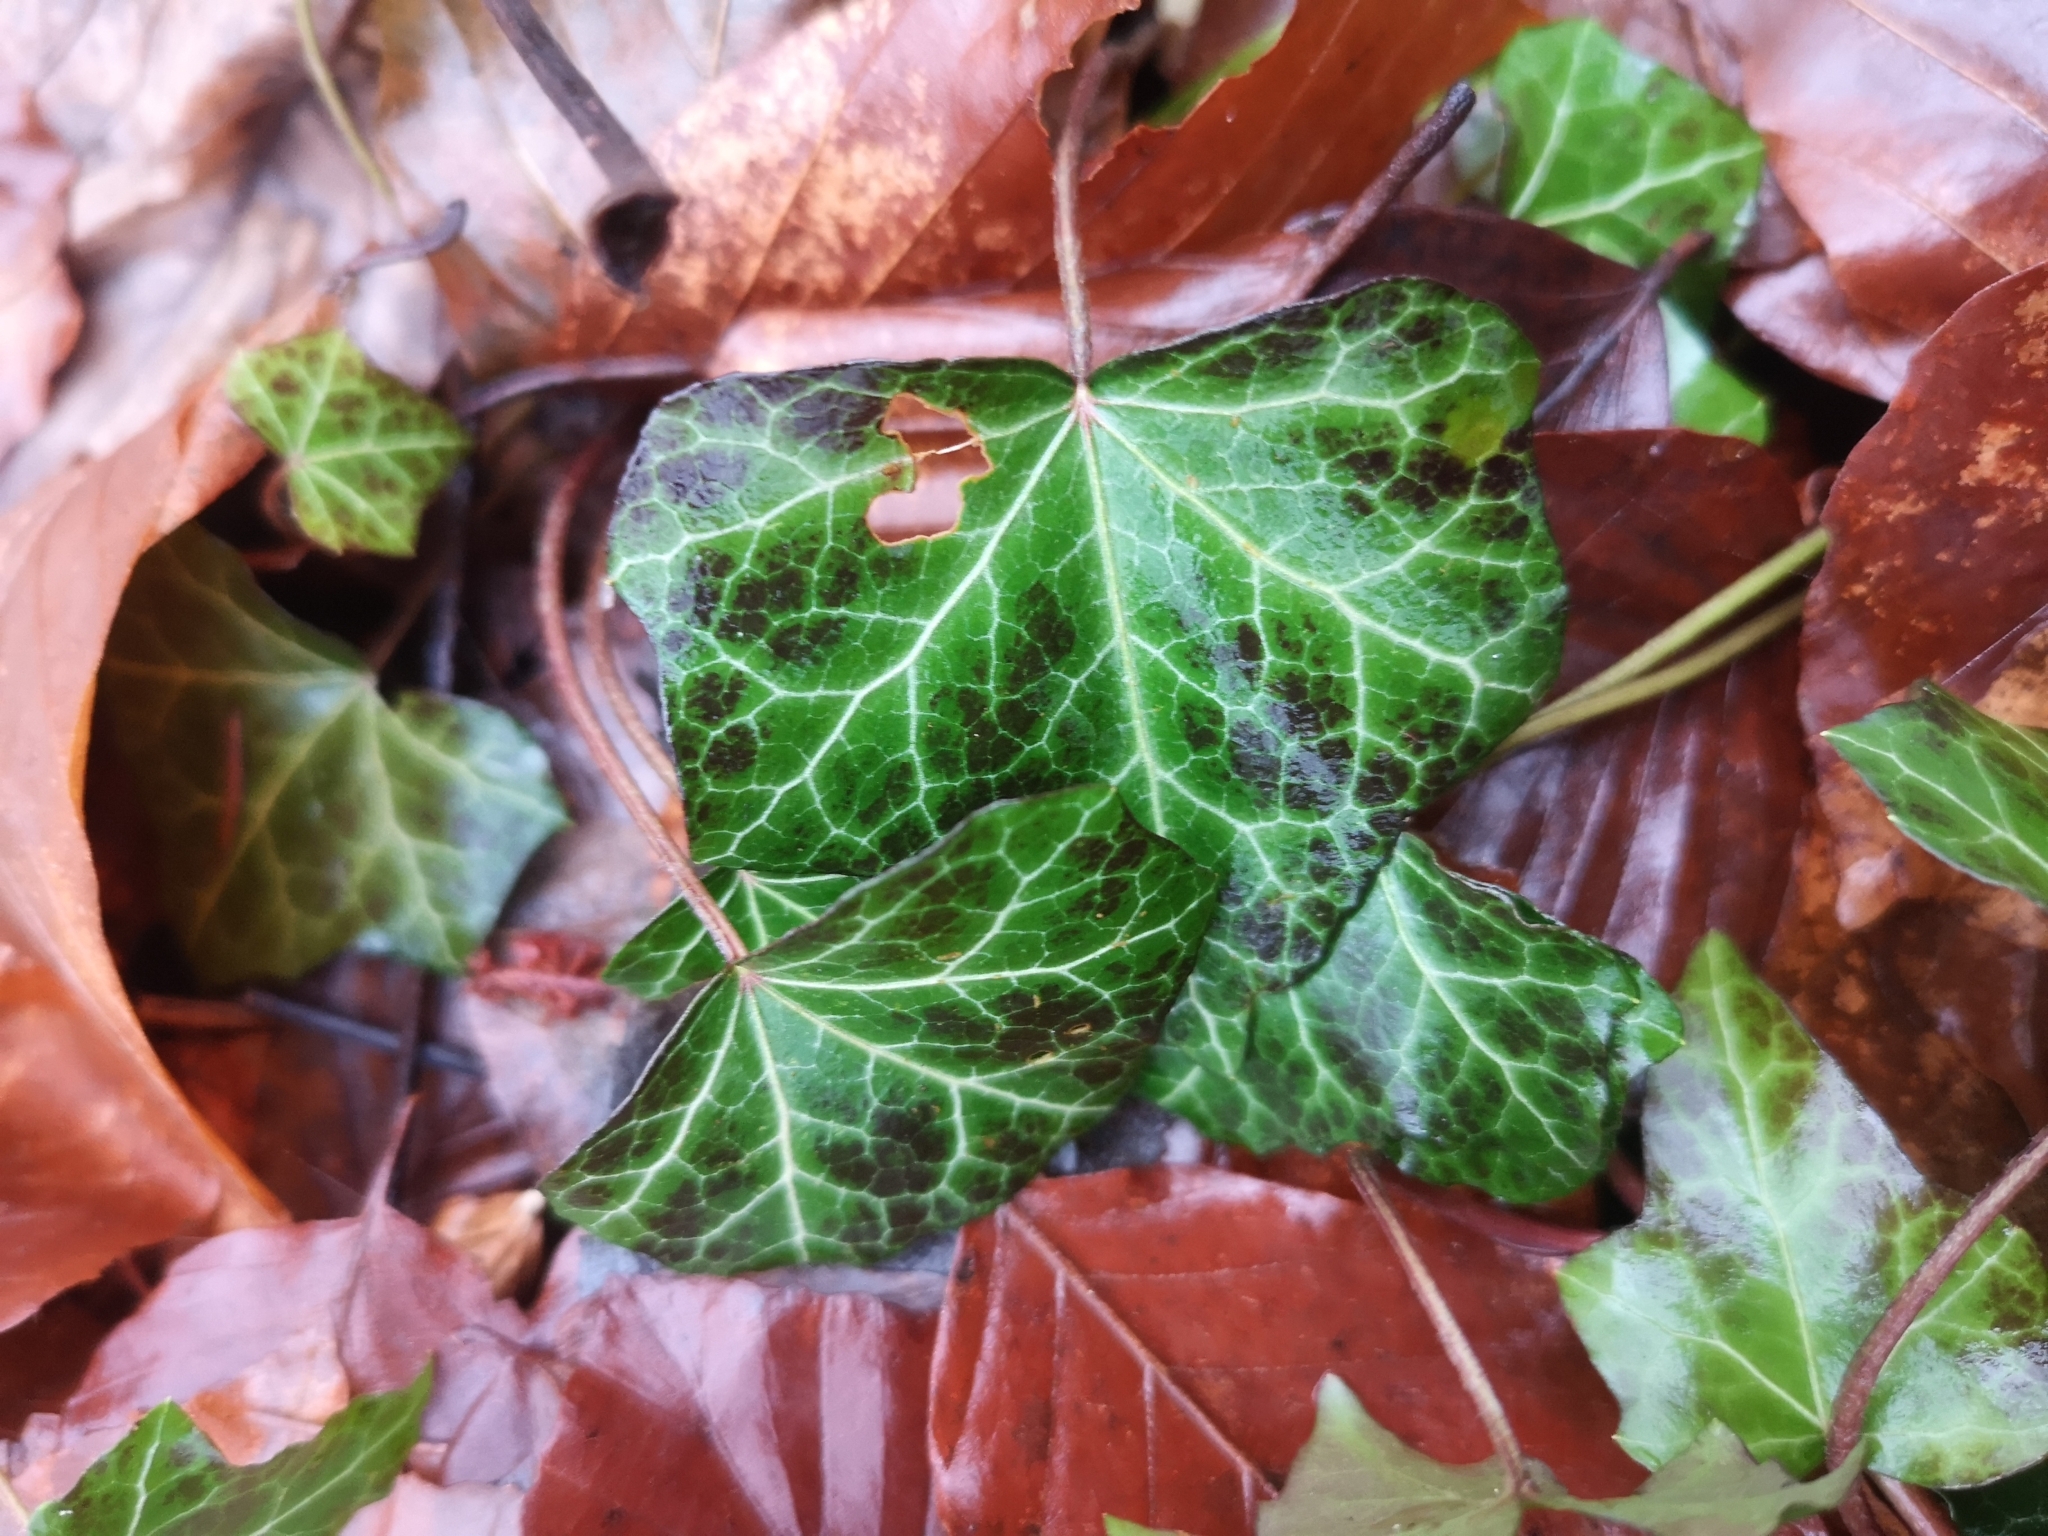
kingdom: Plantae
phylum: Tracheophyta
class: Magnoliopsida
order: Apiales
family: Araliaceae
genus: Hedera
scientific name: Hedera helix
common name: Ivy
